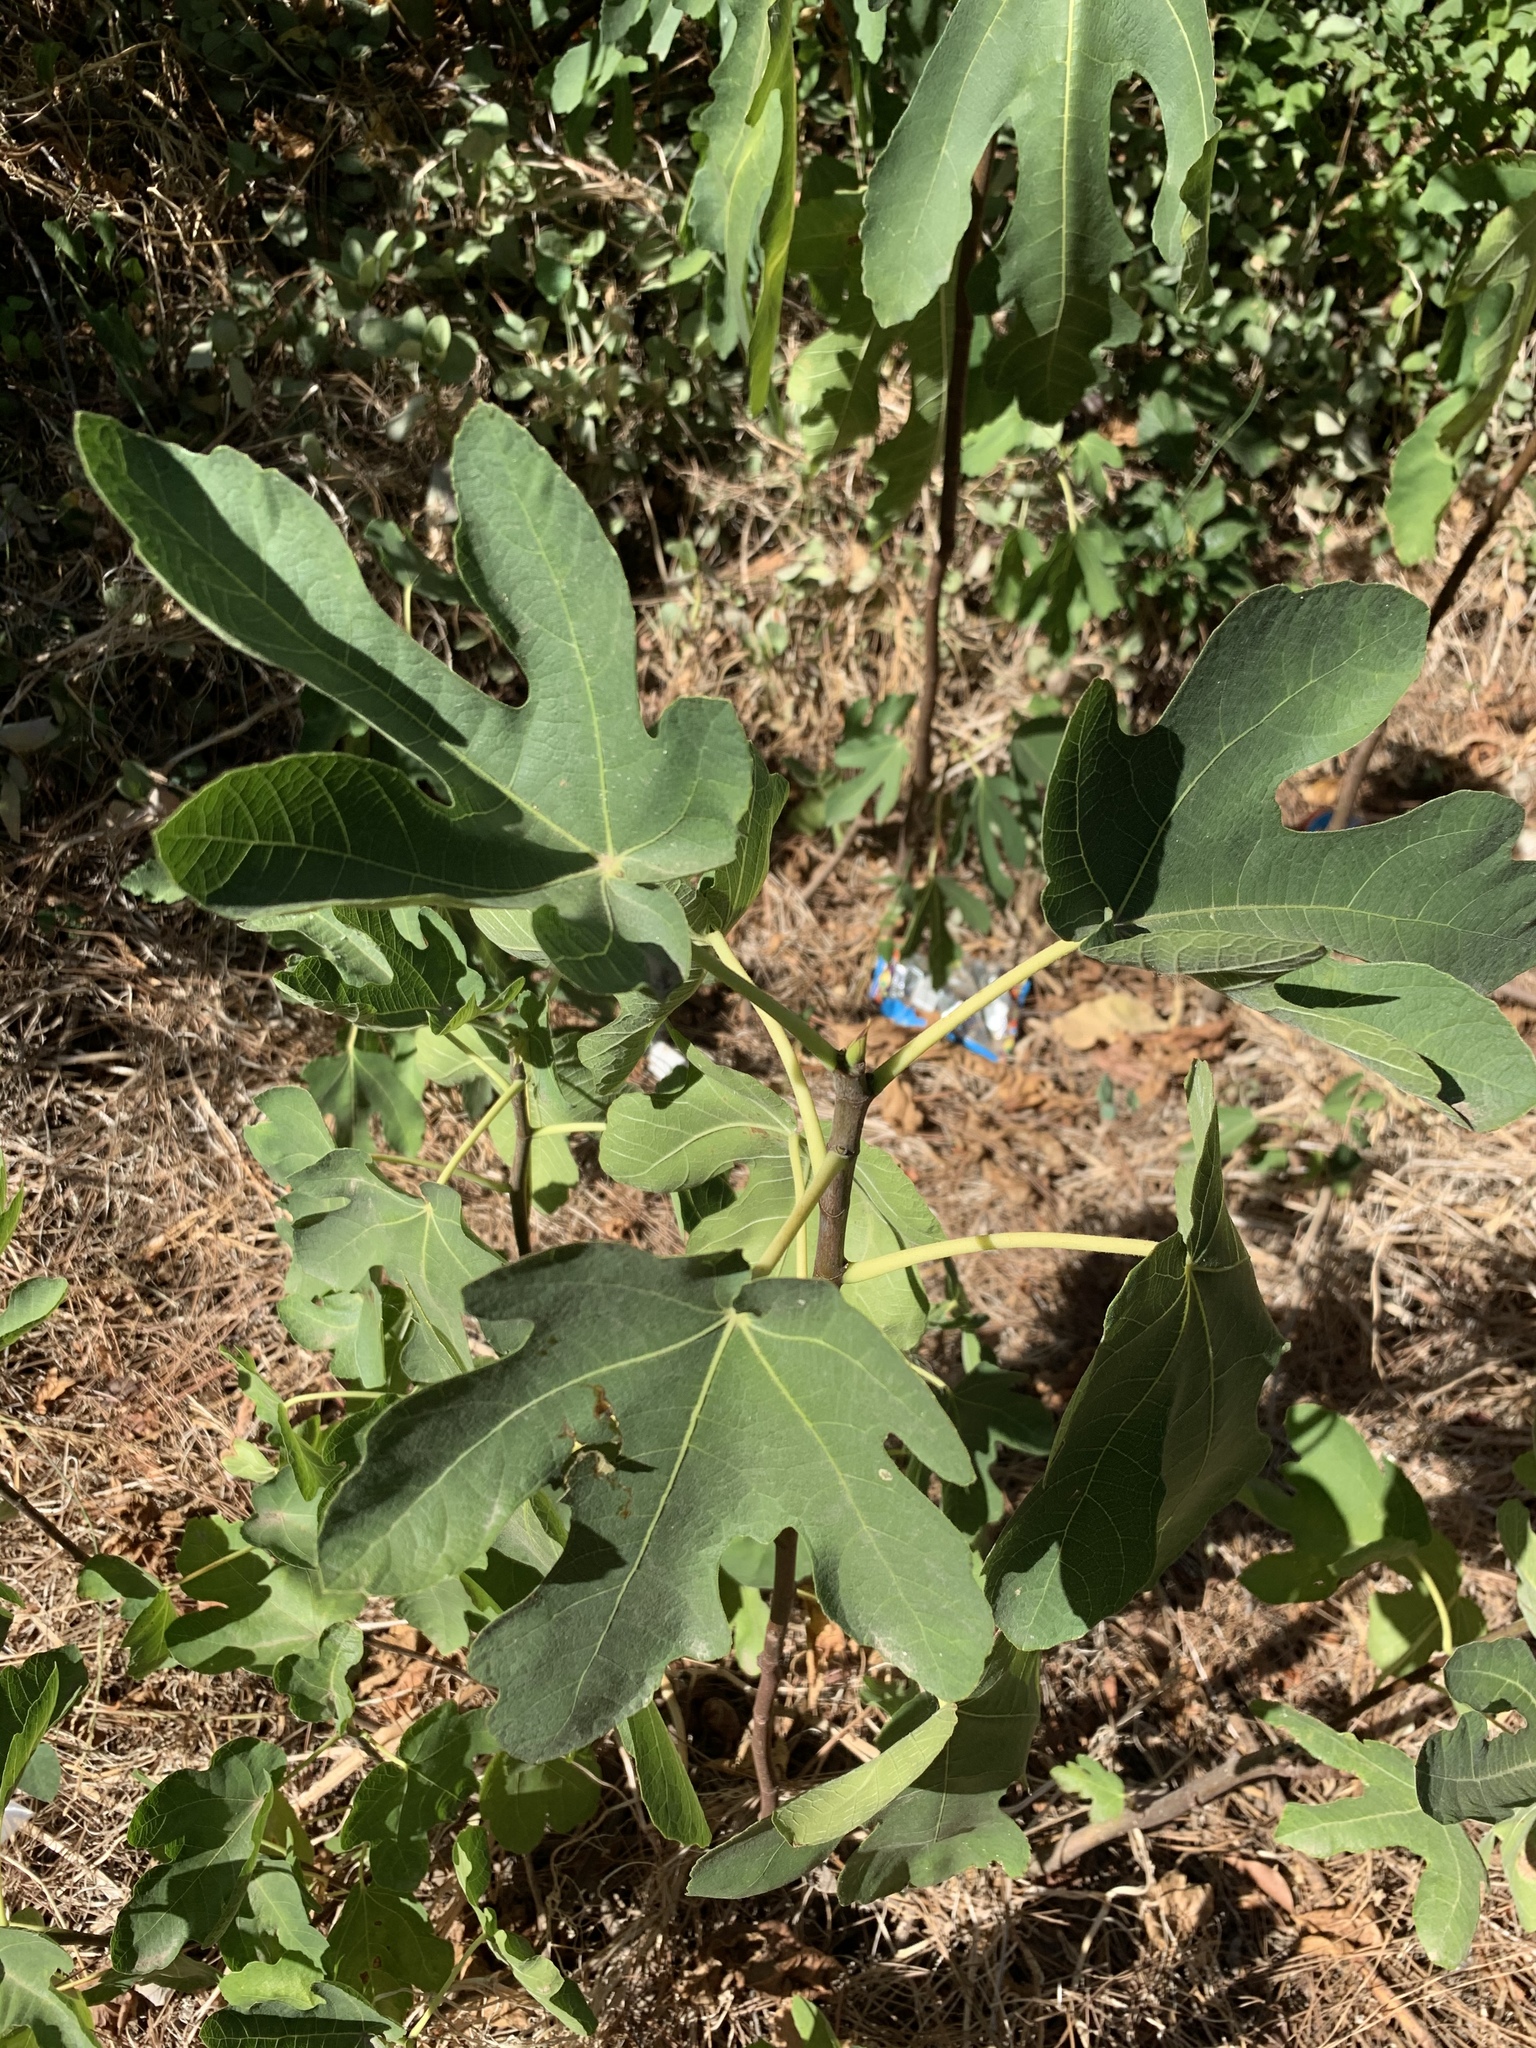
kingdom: Plantae
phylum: Tracheophyta
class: Magnoliopsida
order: Rosales
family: Moraceae
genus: Ficus
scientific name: Ficus carica
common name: Fig
